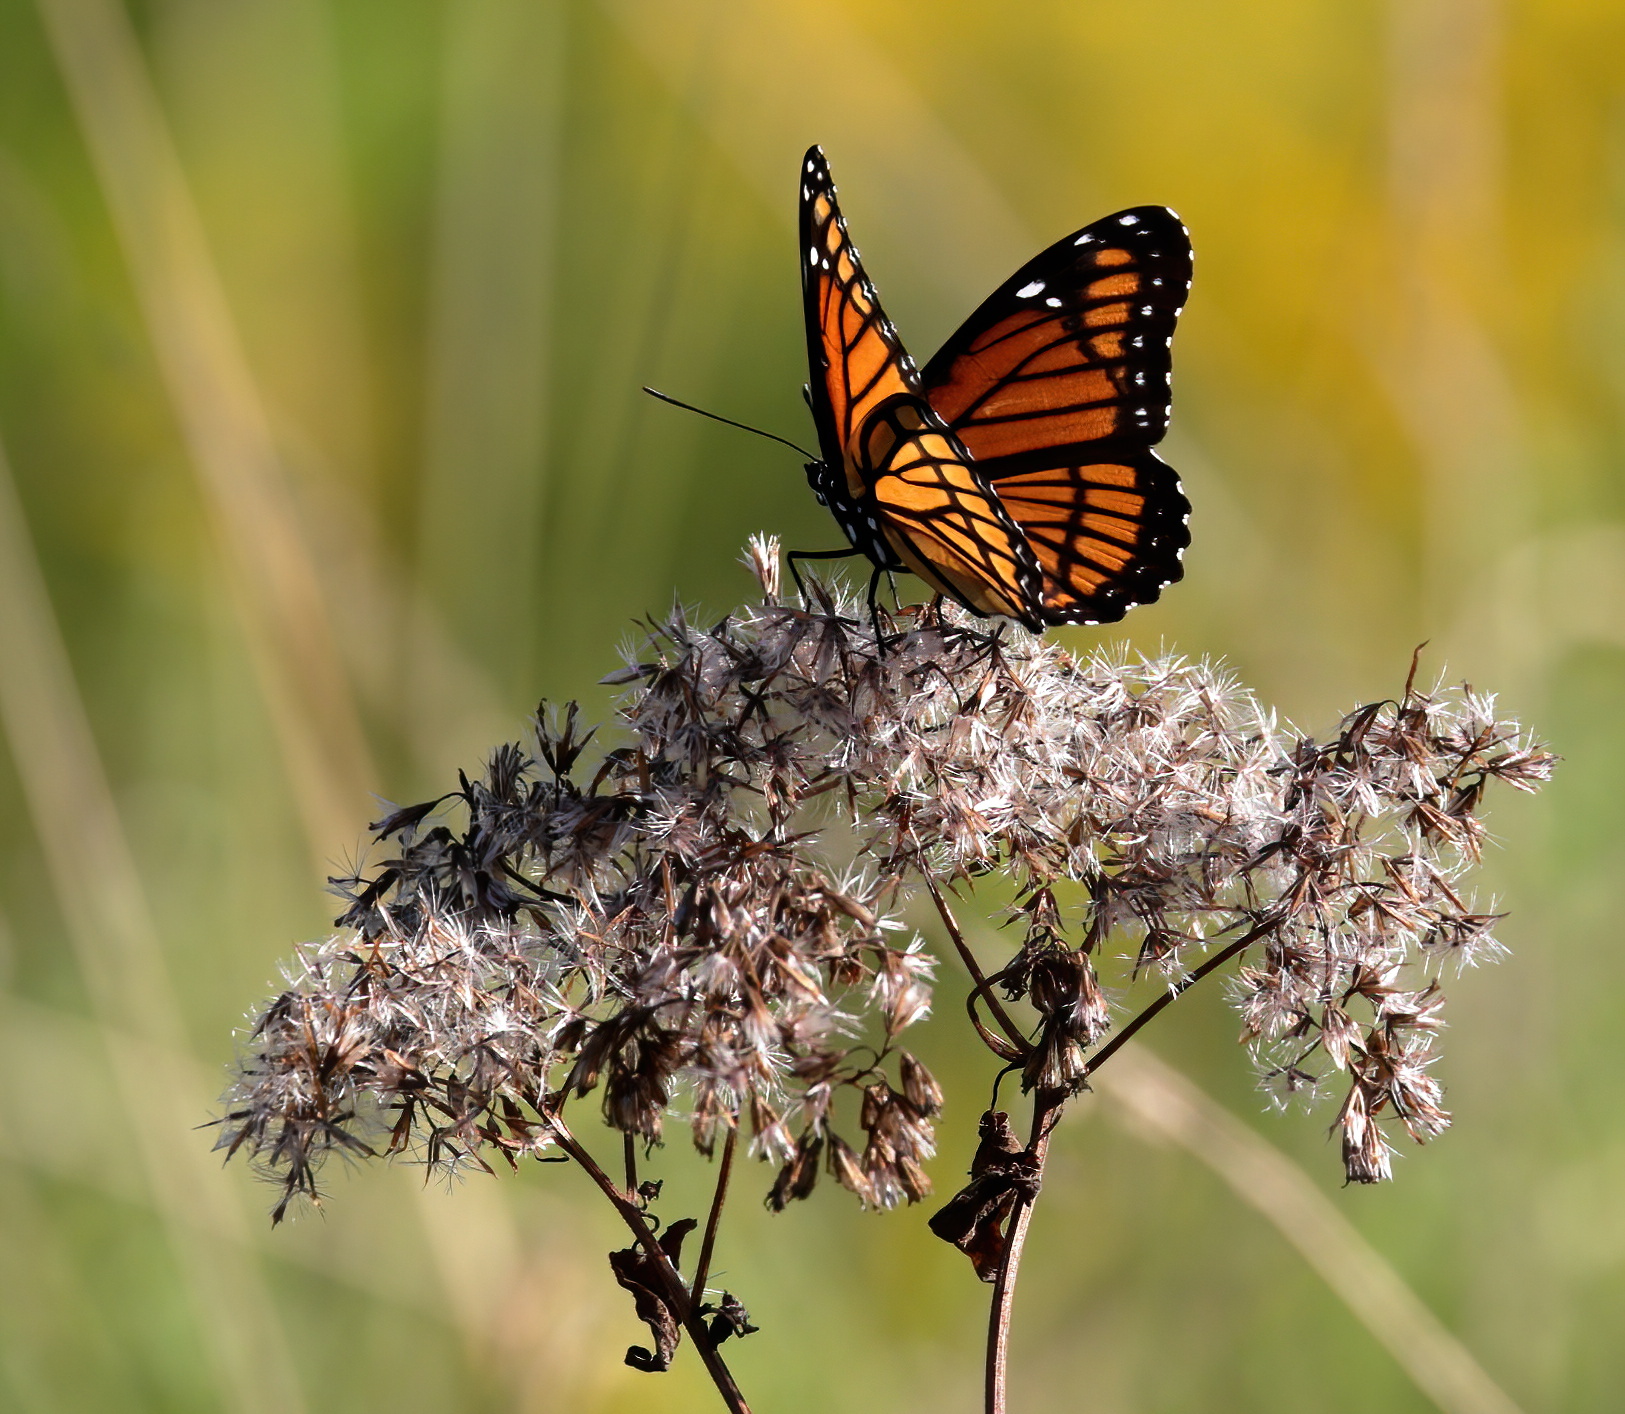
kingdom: Animalia
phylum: Arthropoda
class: Insecta
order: Lepidoptera
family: Nymphalidae
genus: Limenitis
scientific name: Limenitis archippus
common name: Viceroy
